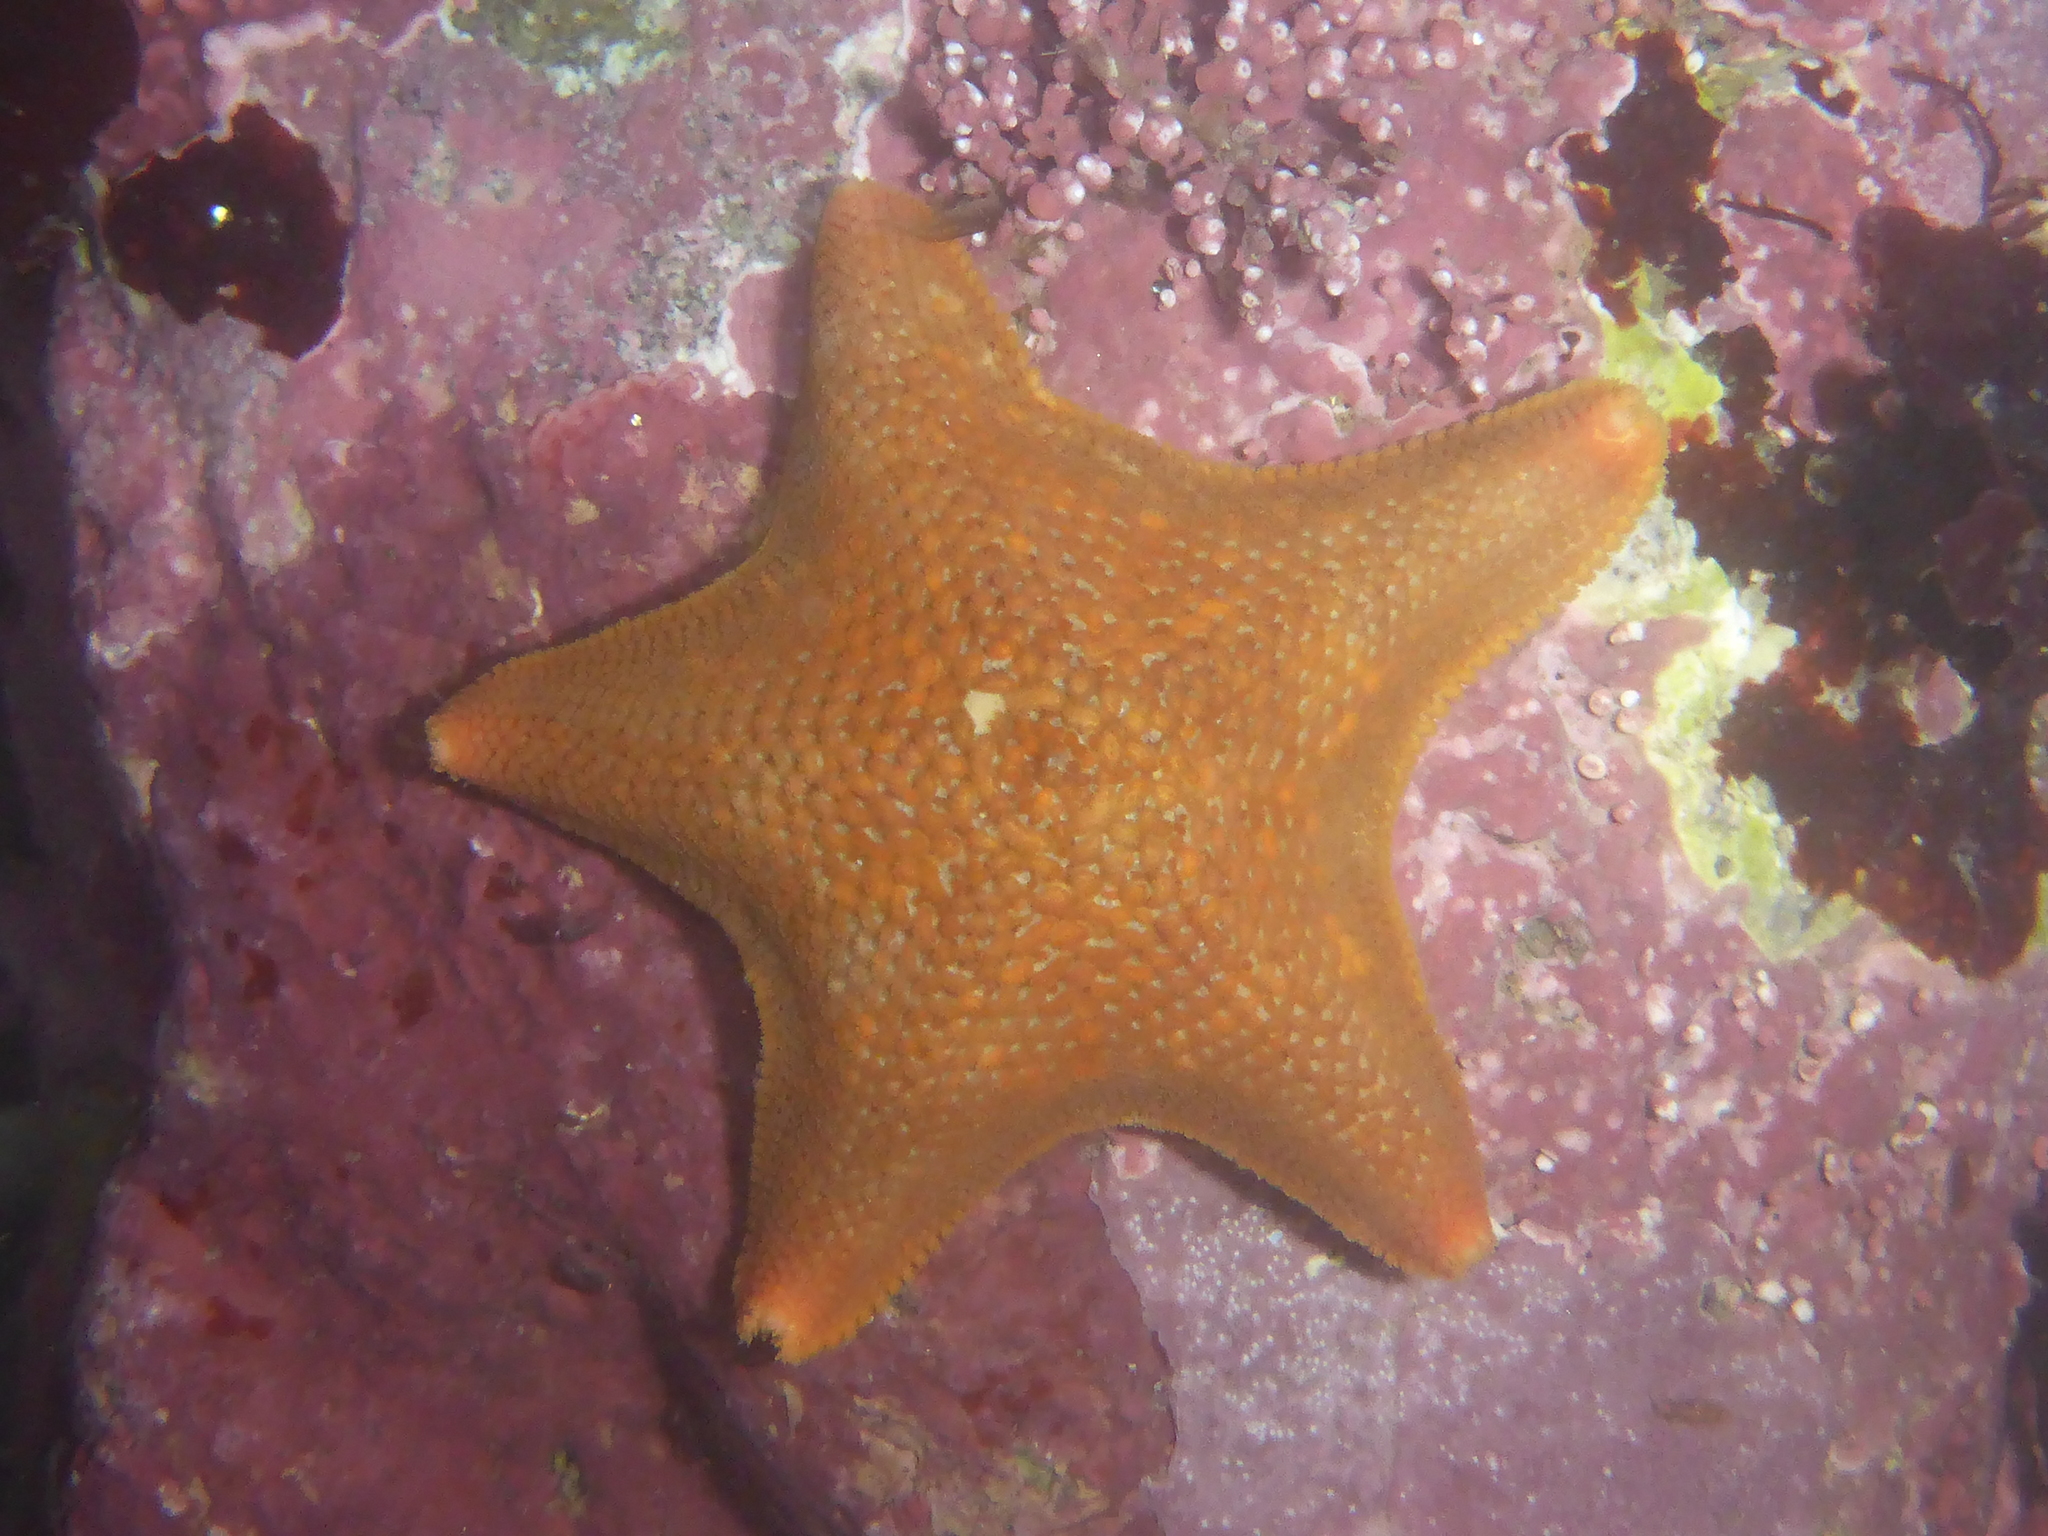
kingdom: Animalia
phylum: Echinodermata
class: Asteroidea
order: Valvatida
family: Asterinidae
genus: Patiria
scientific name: Patiria miniata
